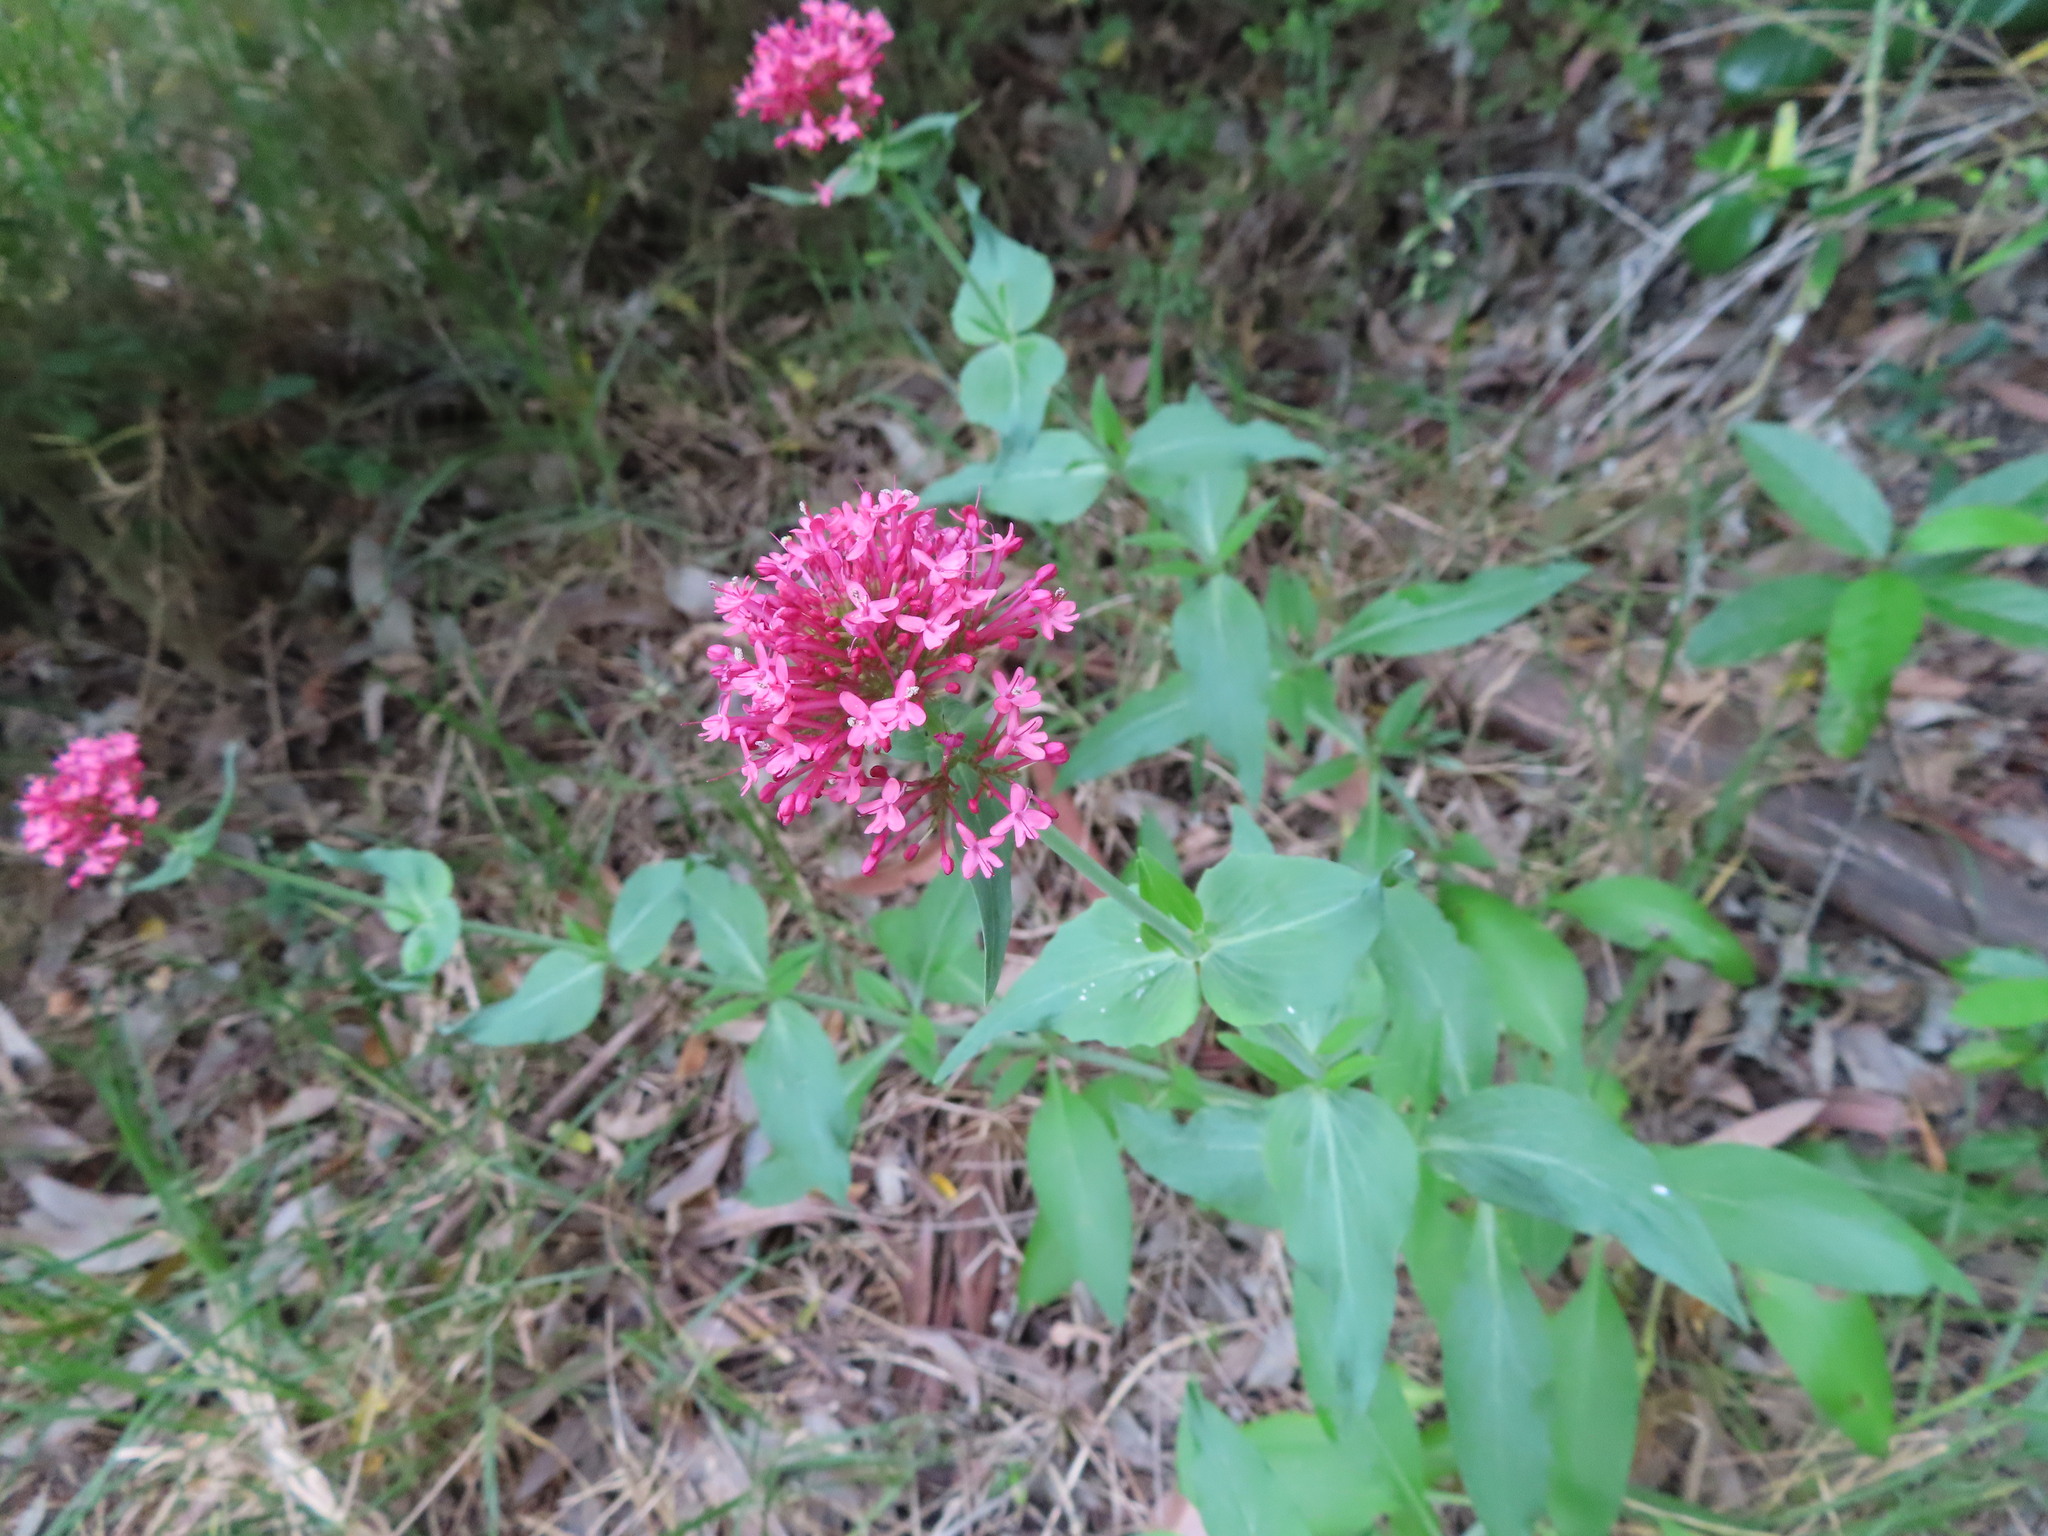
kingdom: Plantae
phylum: Tracheophyta
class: Magnoliopsida
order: Dipsacales
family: Caprifoliaceae
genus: Centranthus
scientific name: Centranthus ruber
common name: Red valerian
